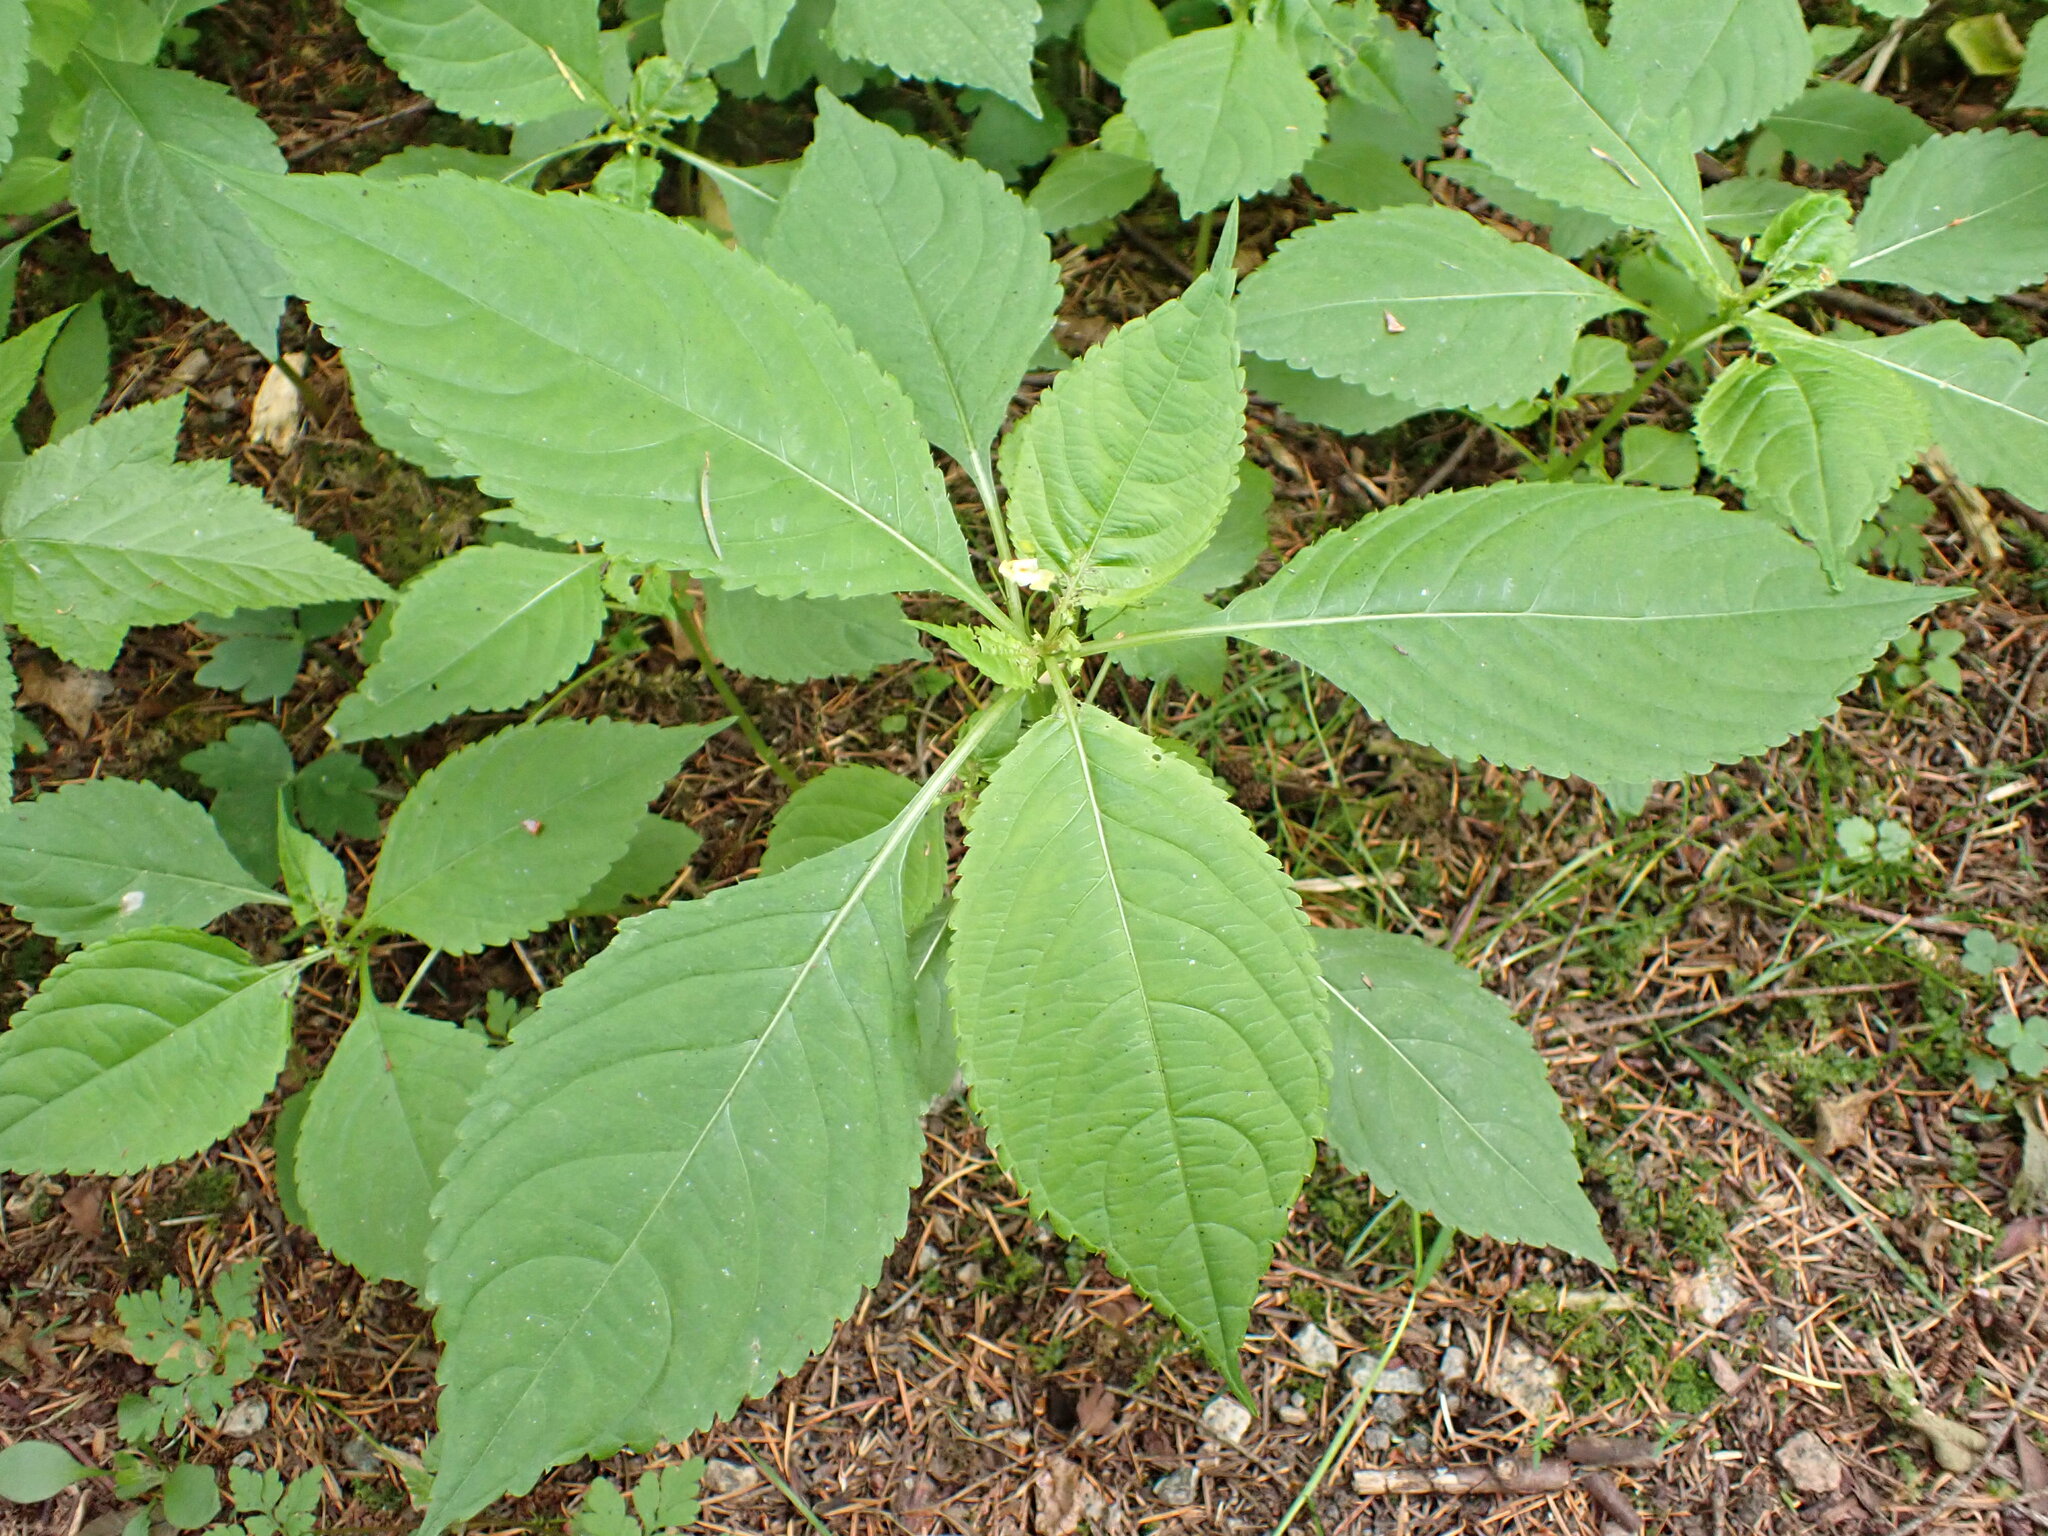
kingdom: Plantae
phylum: Tracheophyta
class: Magnoliopsida
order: Ericales
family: Balsaminaceae
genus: Impatiens
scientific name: Impatiens parviflora
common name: Small balsam
